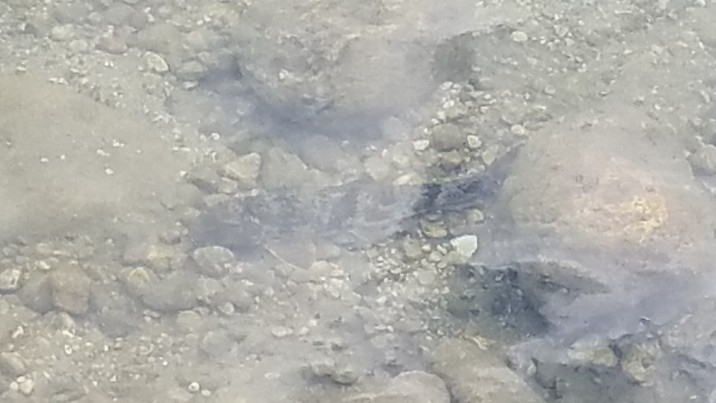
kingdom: Animalia
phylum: Chordata
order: Cypriniformes
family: Catostomidae
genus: Hypentelium
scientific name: Hypentelium nigricans
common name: Northern hog sucker
